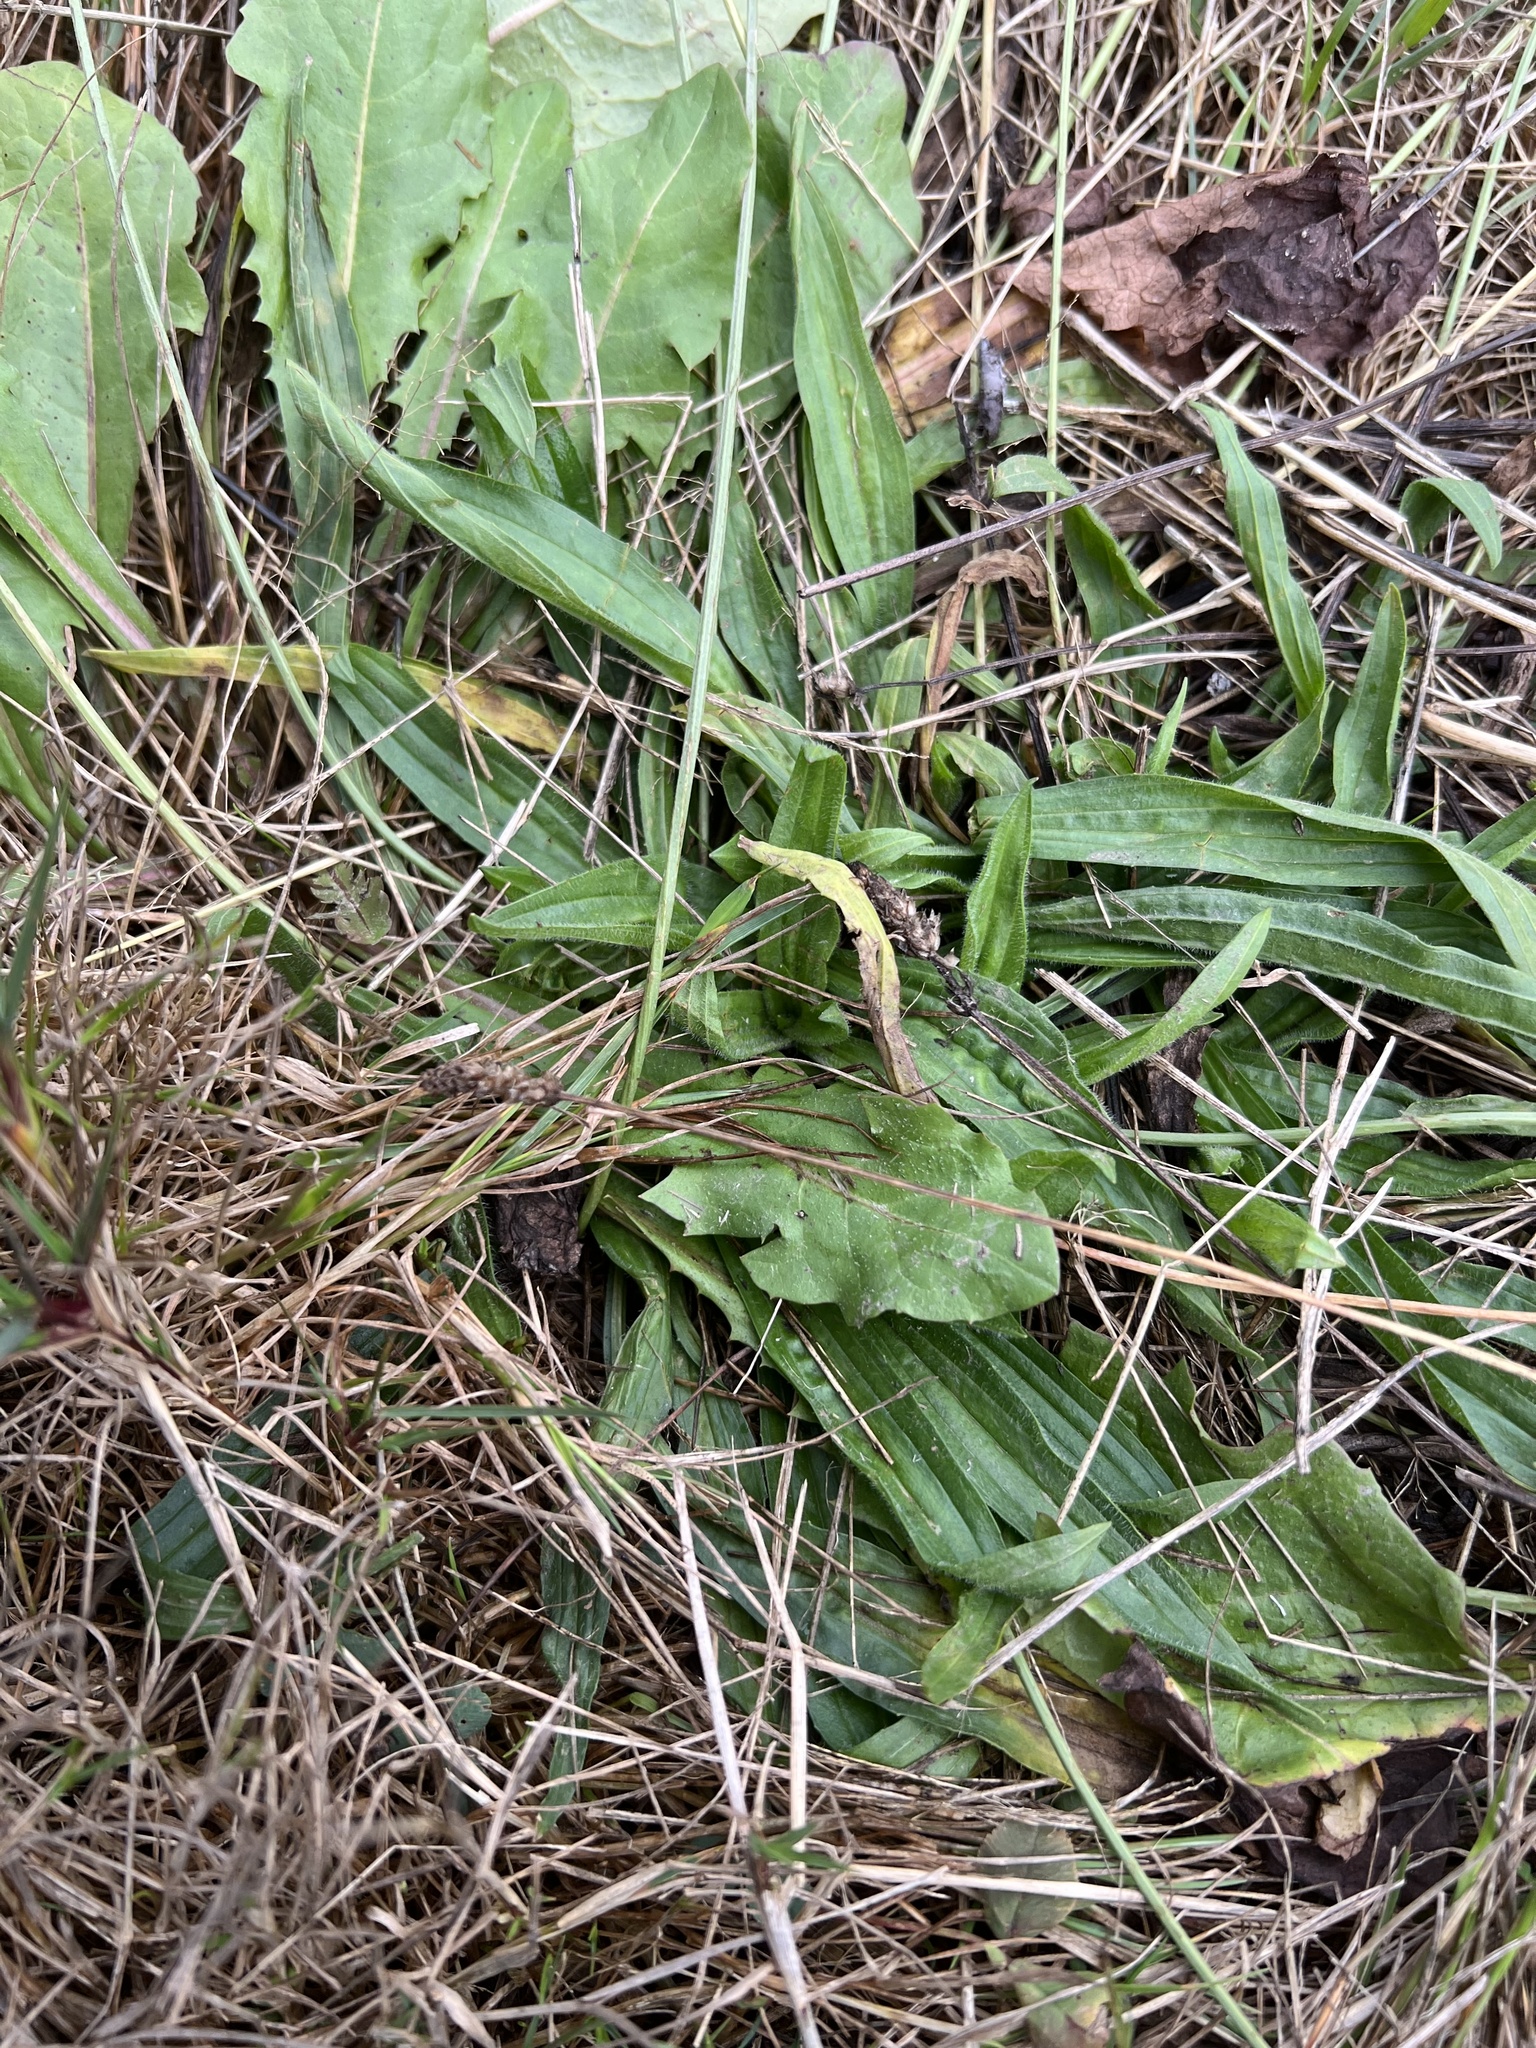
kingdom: Plantae
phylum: Tracheophyta
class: Magnoliopsida
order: Lamiales
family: Plantaginaceae
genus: Plantago
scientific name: Plantago lanceolata
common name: Ribwort plantain
